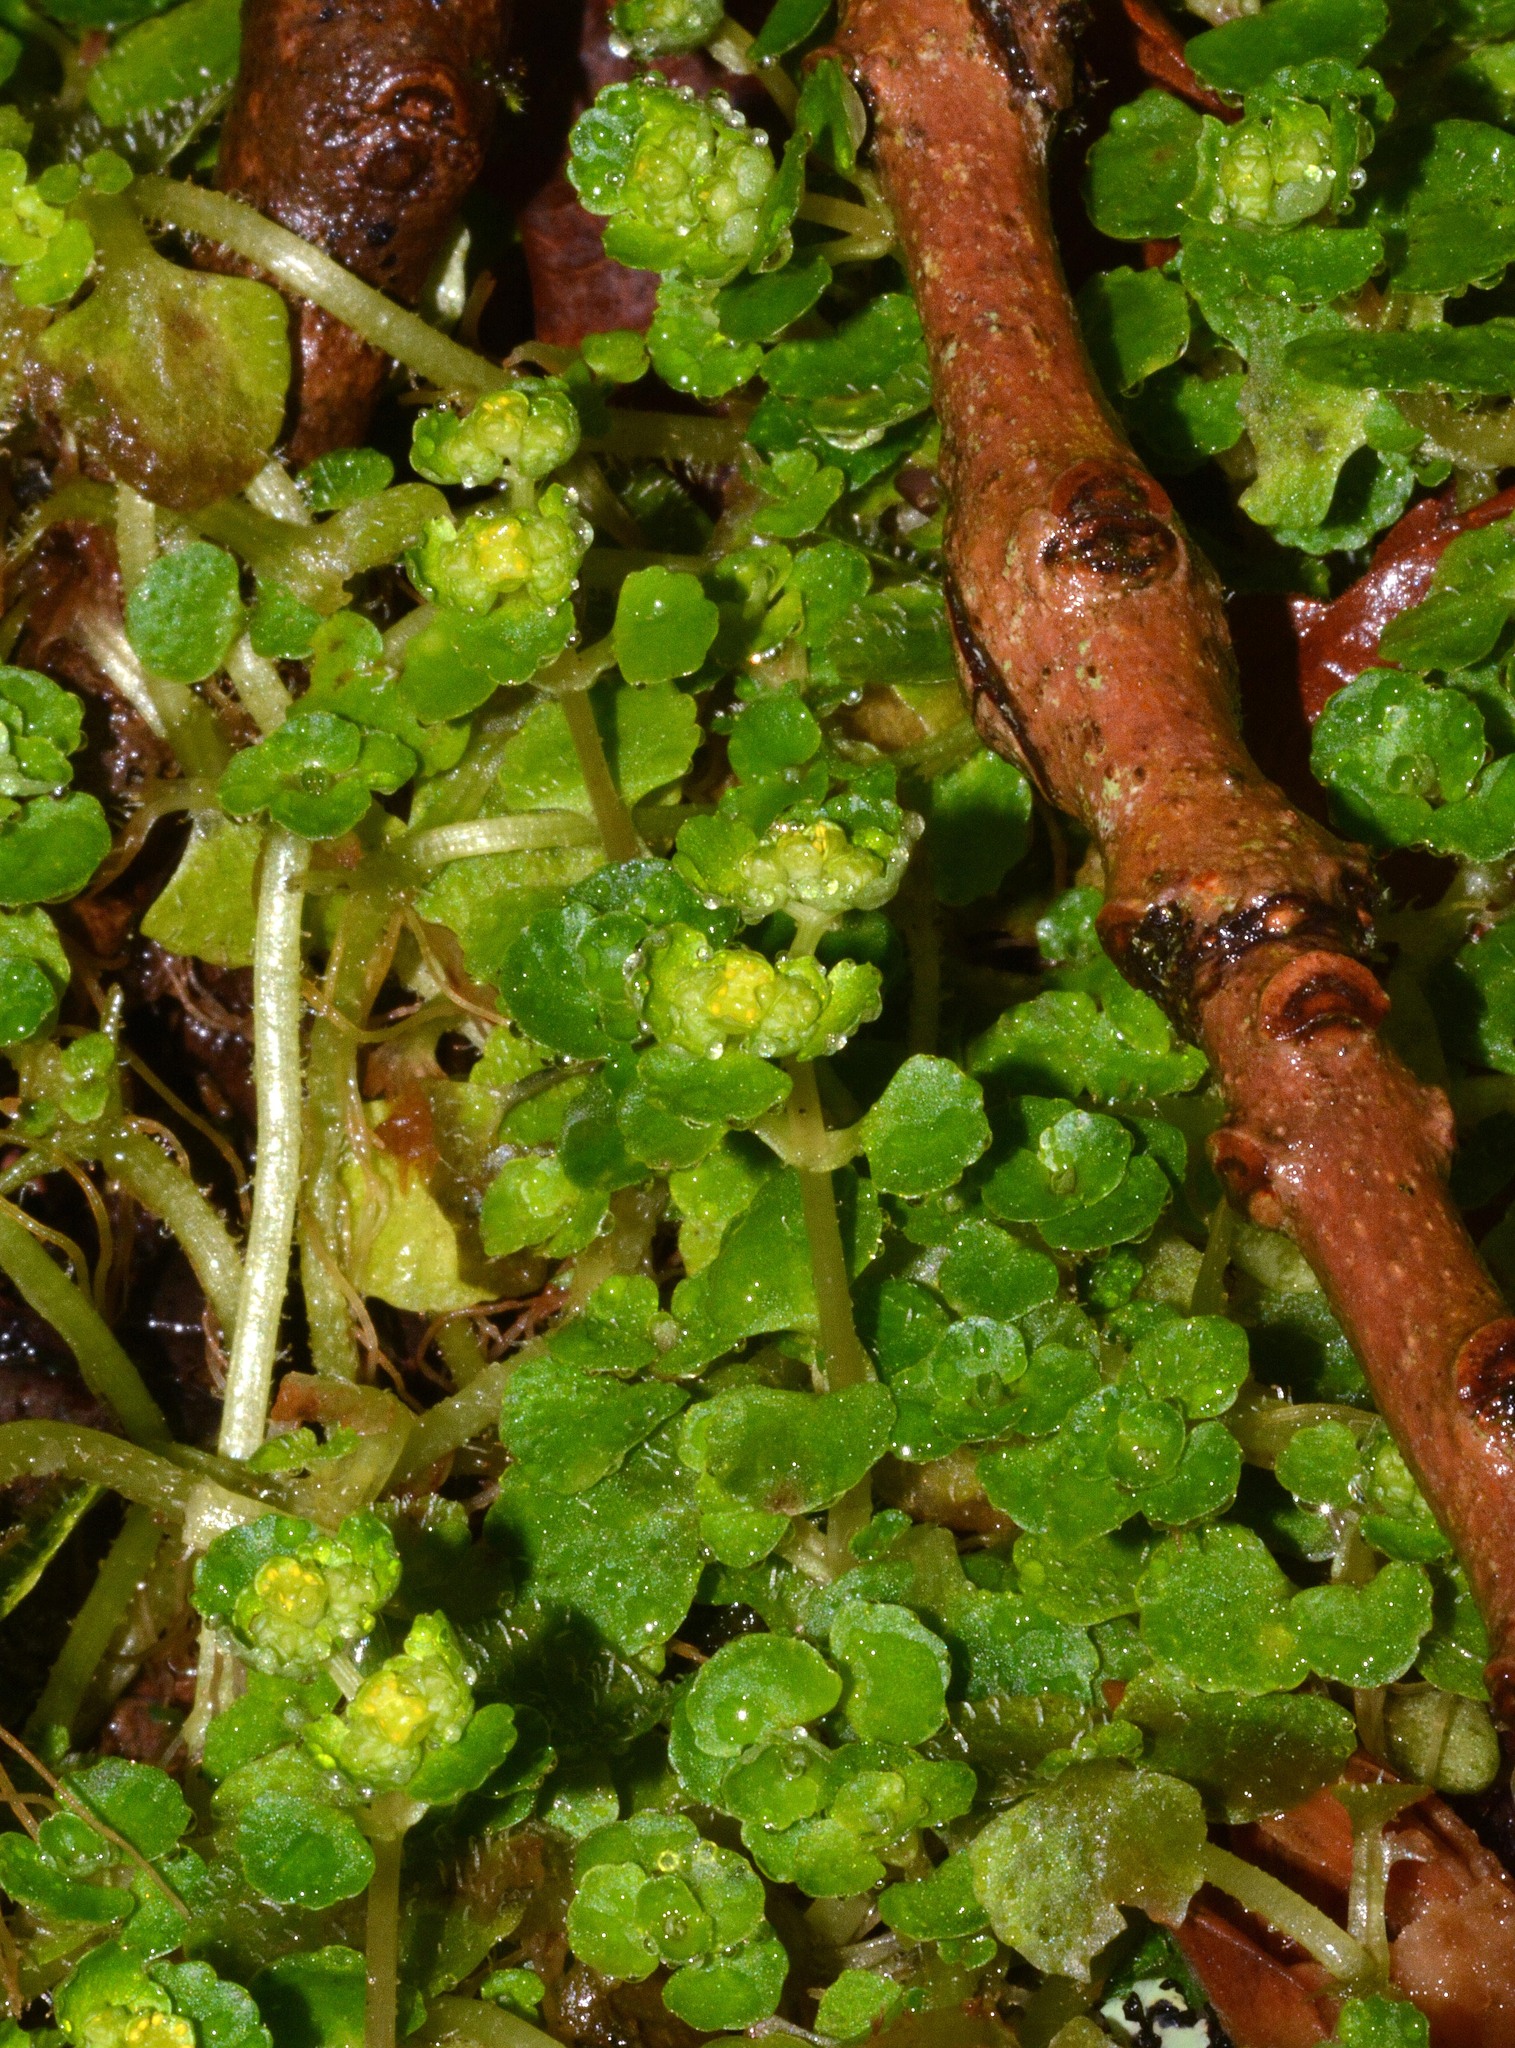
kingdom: Plantae
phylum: Tracheophyta
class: Magnoliopsida
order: Saxifragales
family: Saxifragaceae
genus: Chrysosplenium
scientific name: Chrysosplenium oppositifolium
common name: Opposite-leaved golden-saxifrage
